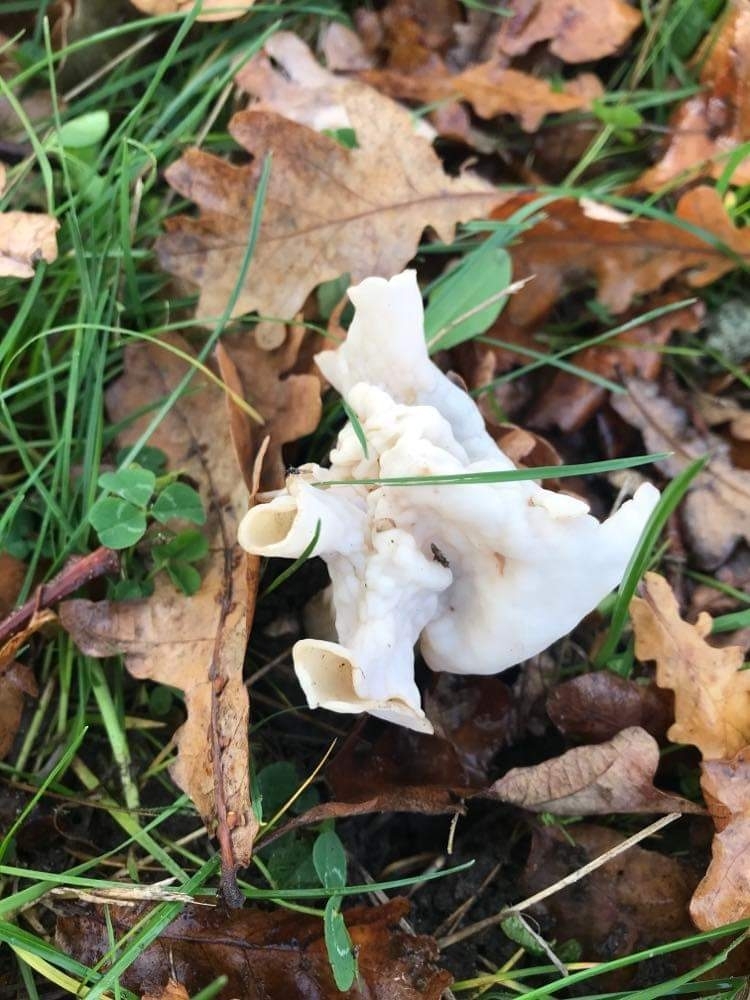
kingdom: Fungi
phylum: Ascomycota
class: Pezizomycetes
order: Pezizales
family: Helvellaceae
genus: Helvella
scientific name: Helvella crispa
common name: White saddle
